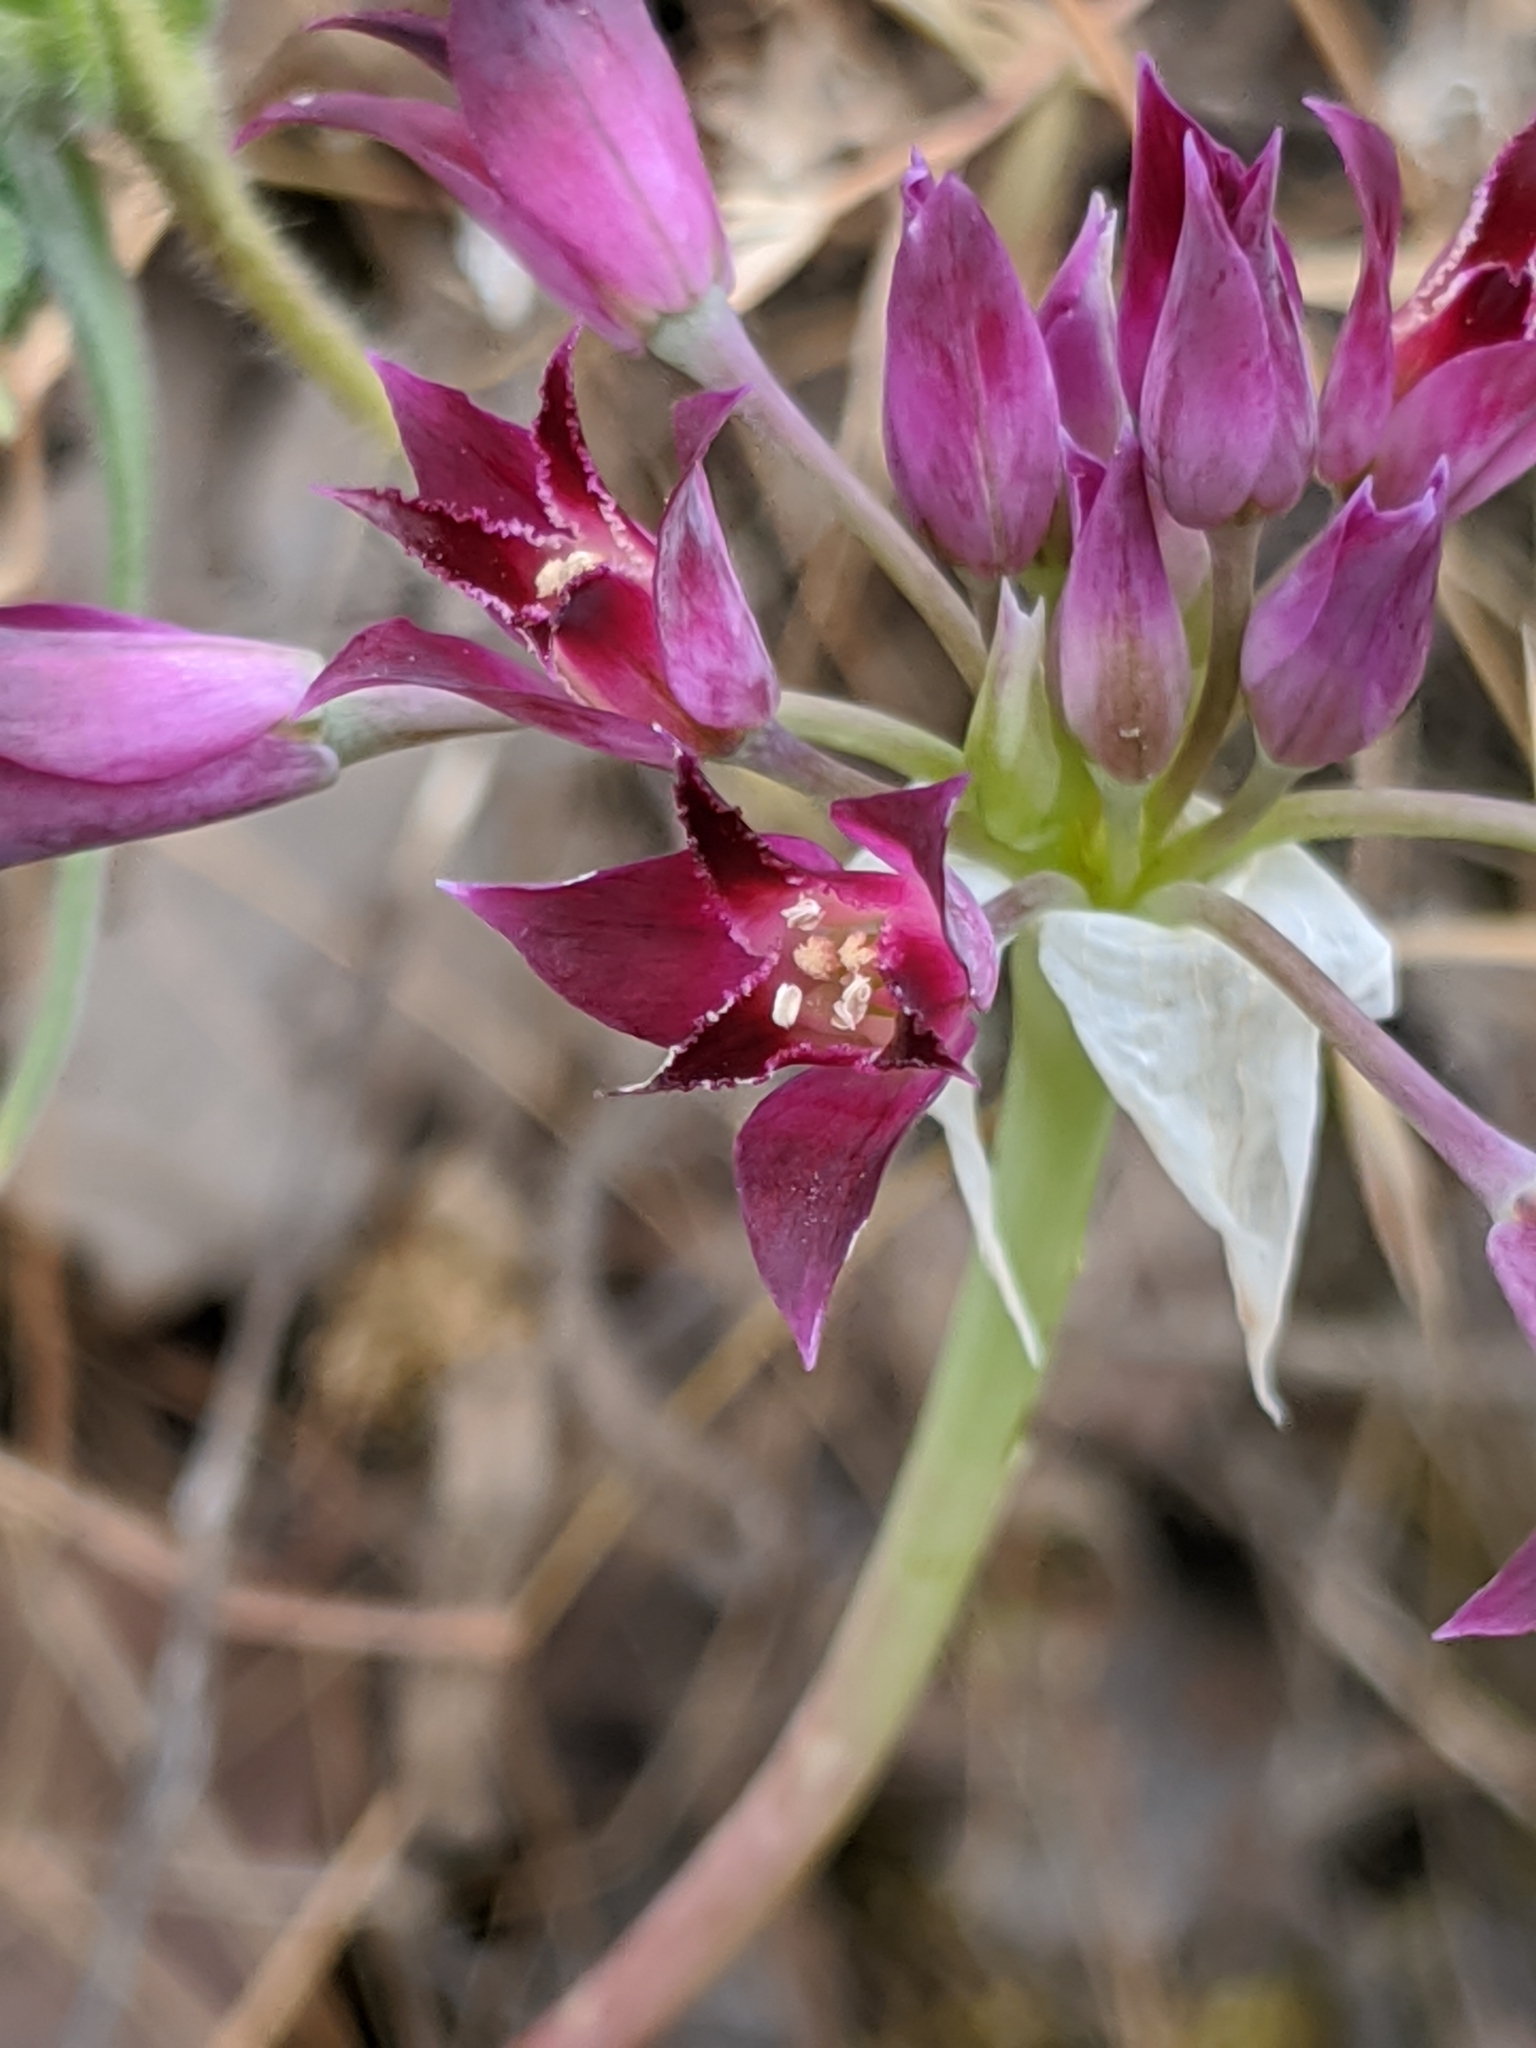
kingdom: Plantae
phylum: Tracheophyta
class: Liliopsida
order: Asparagales
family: Amaryllidaceae
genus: Allium
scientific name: Allium crispum
